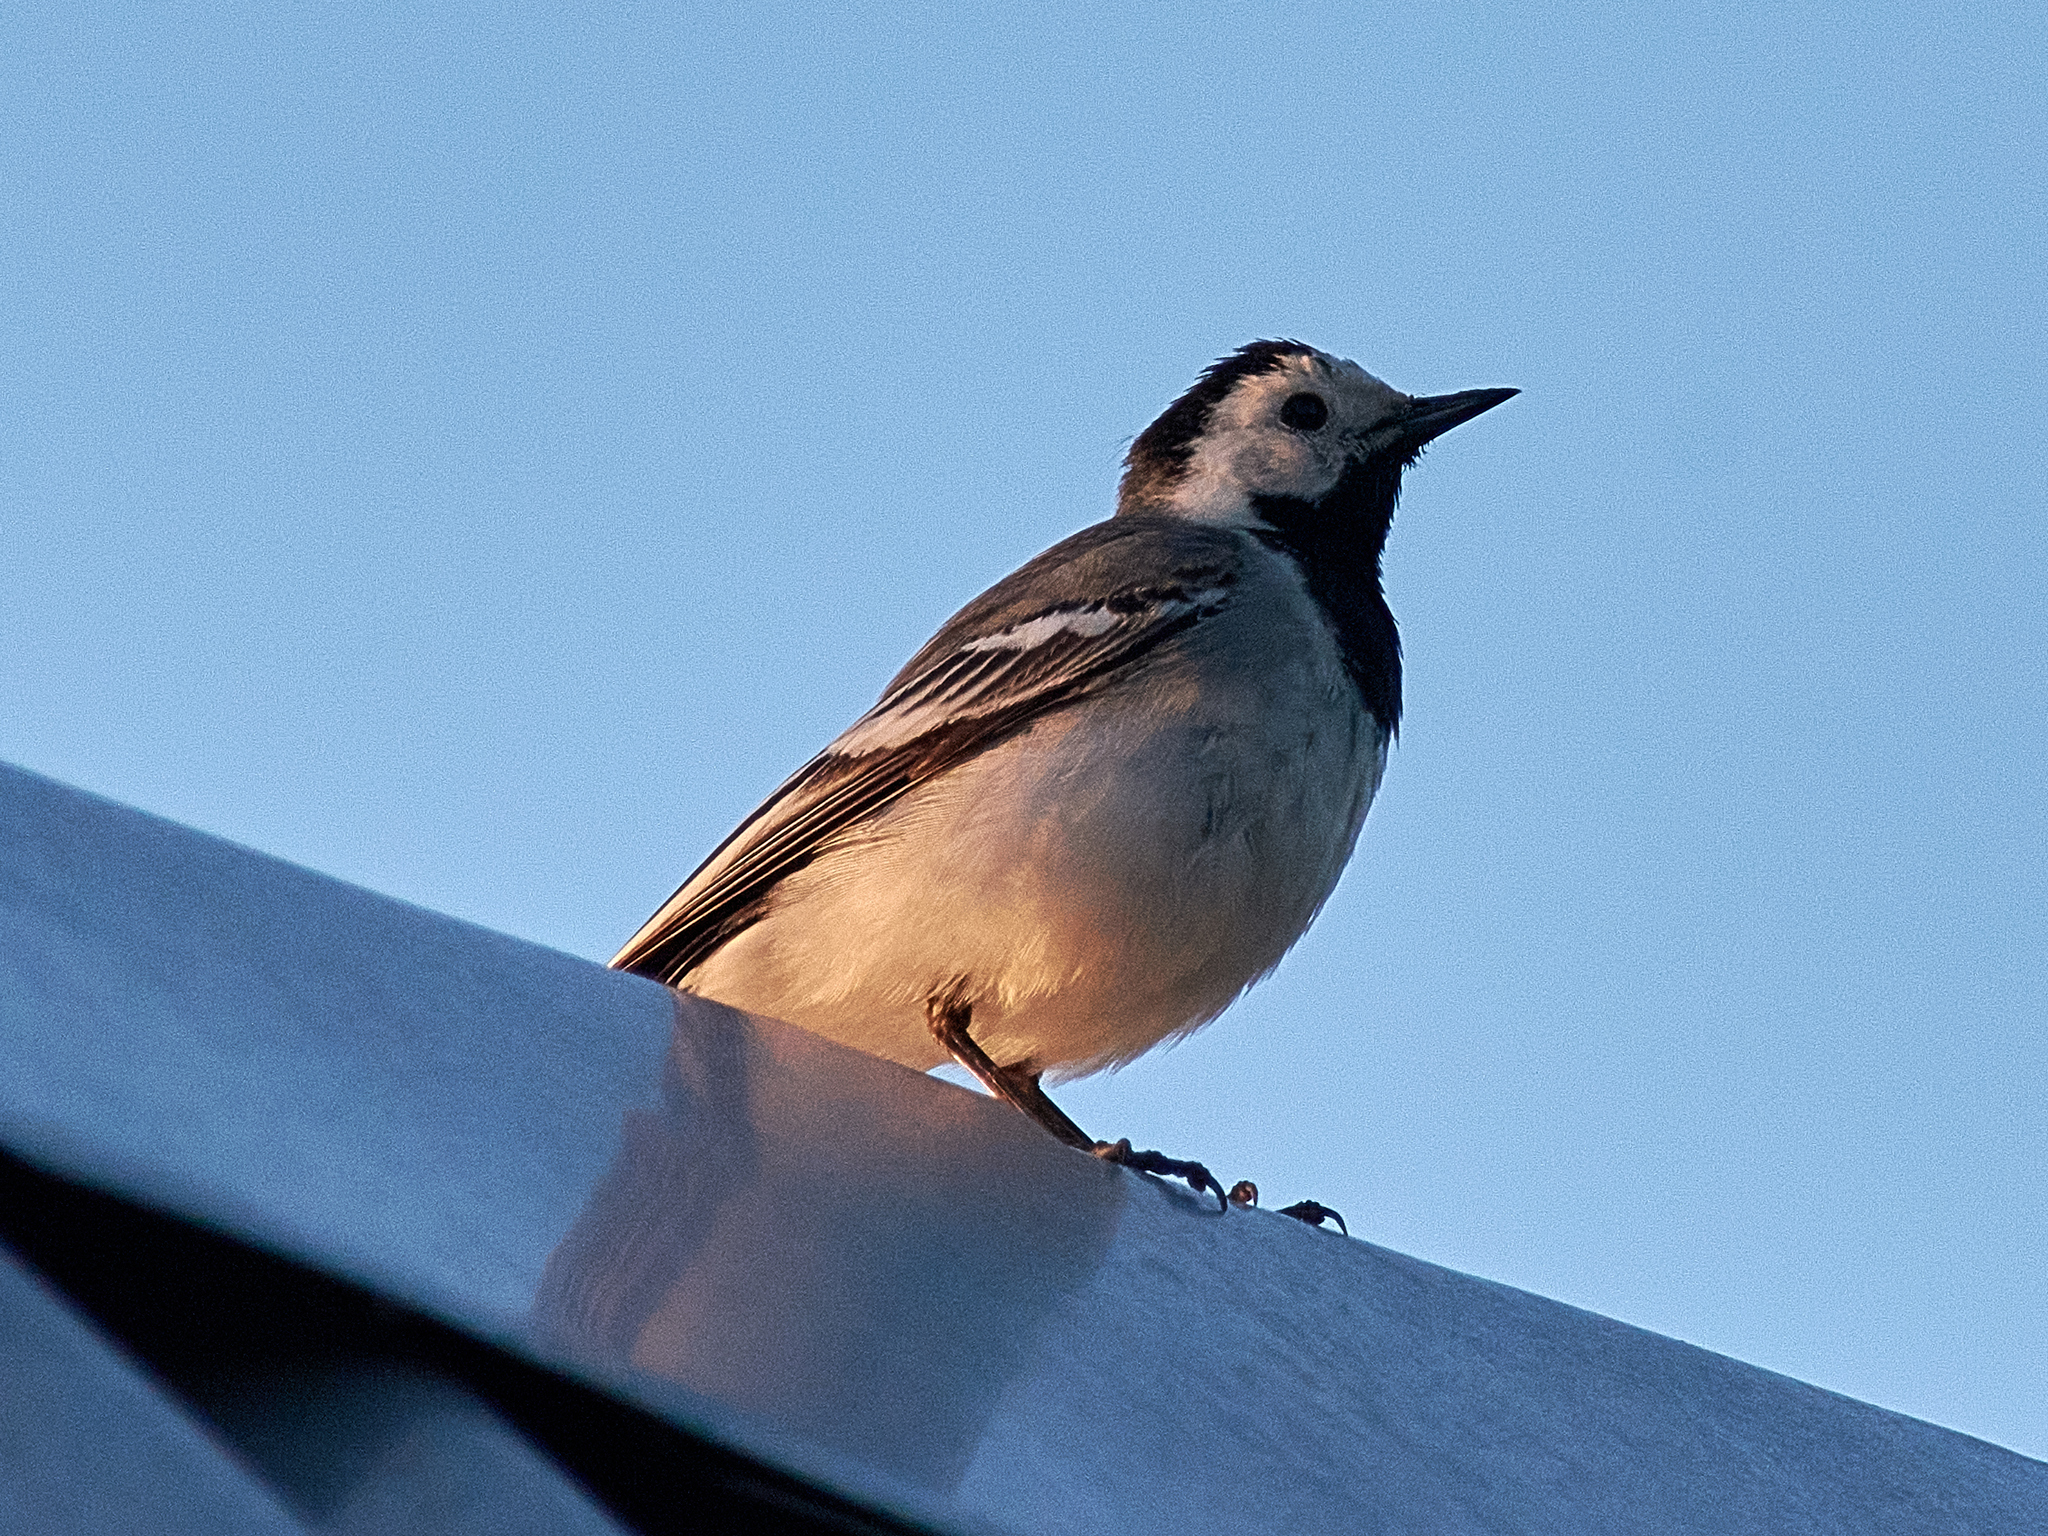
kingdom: Animalia
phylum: Chordata
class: Aves
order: Passeriformes
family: Motacillidae
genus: Motacilla
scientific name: Motacilla alba
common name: White wagtail
